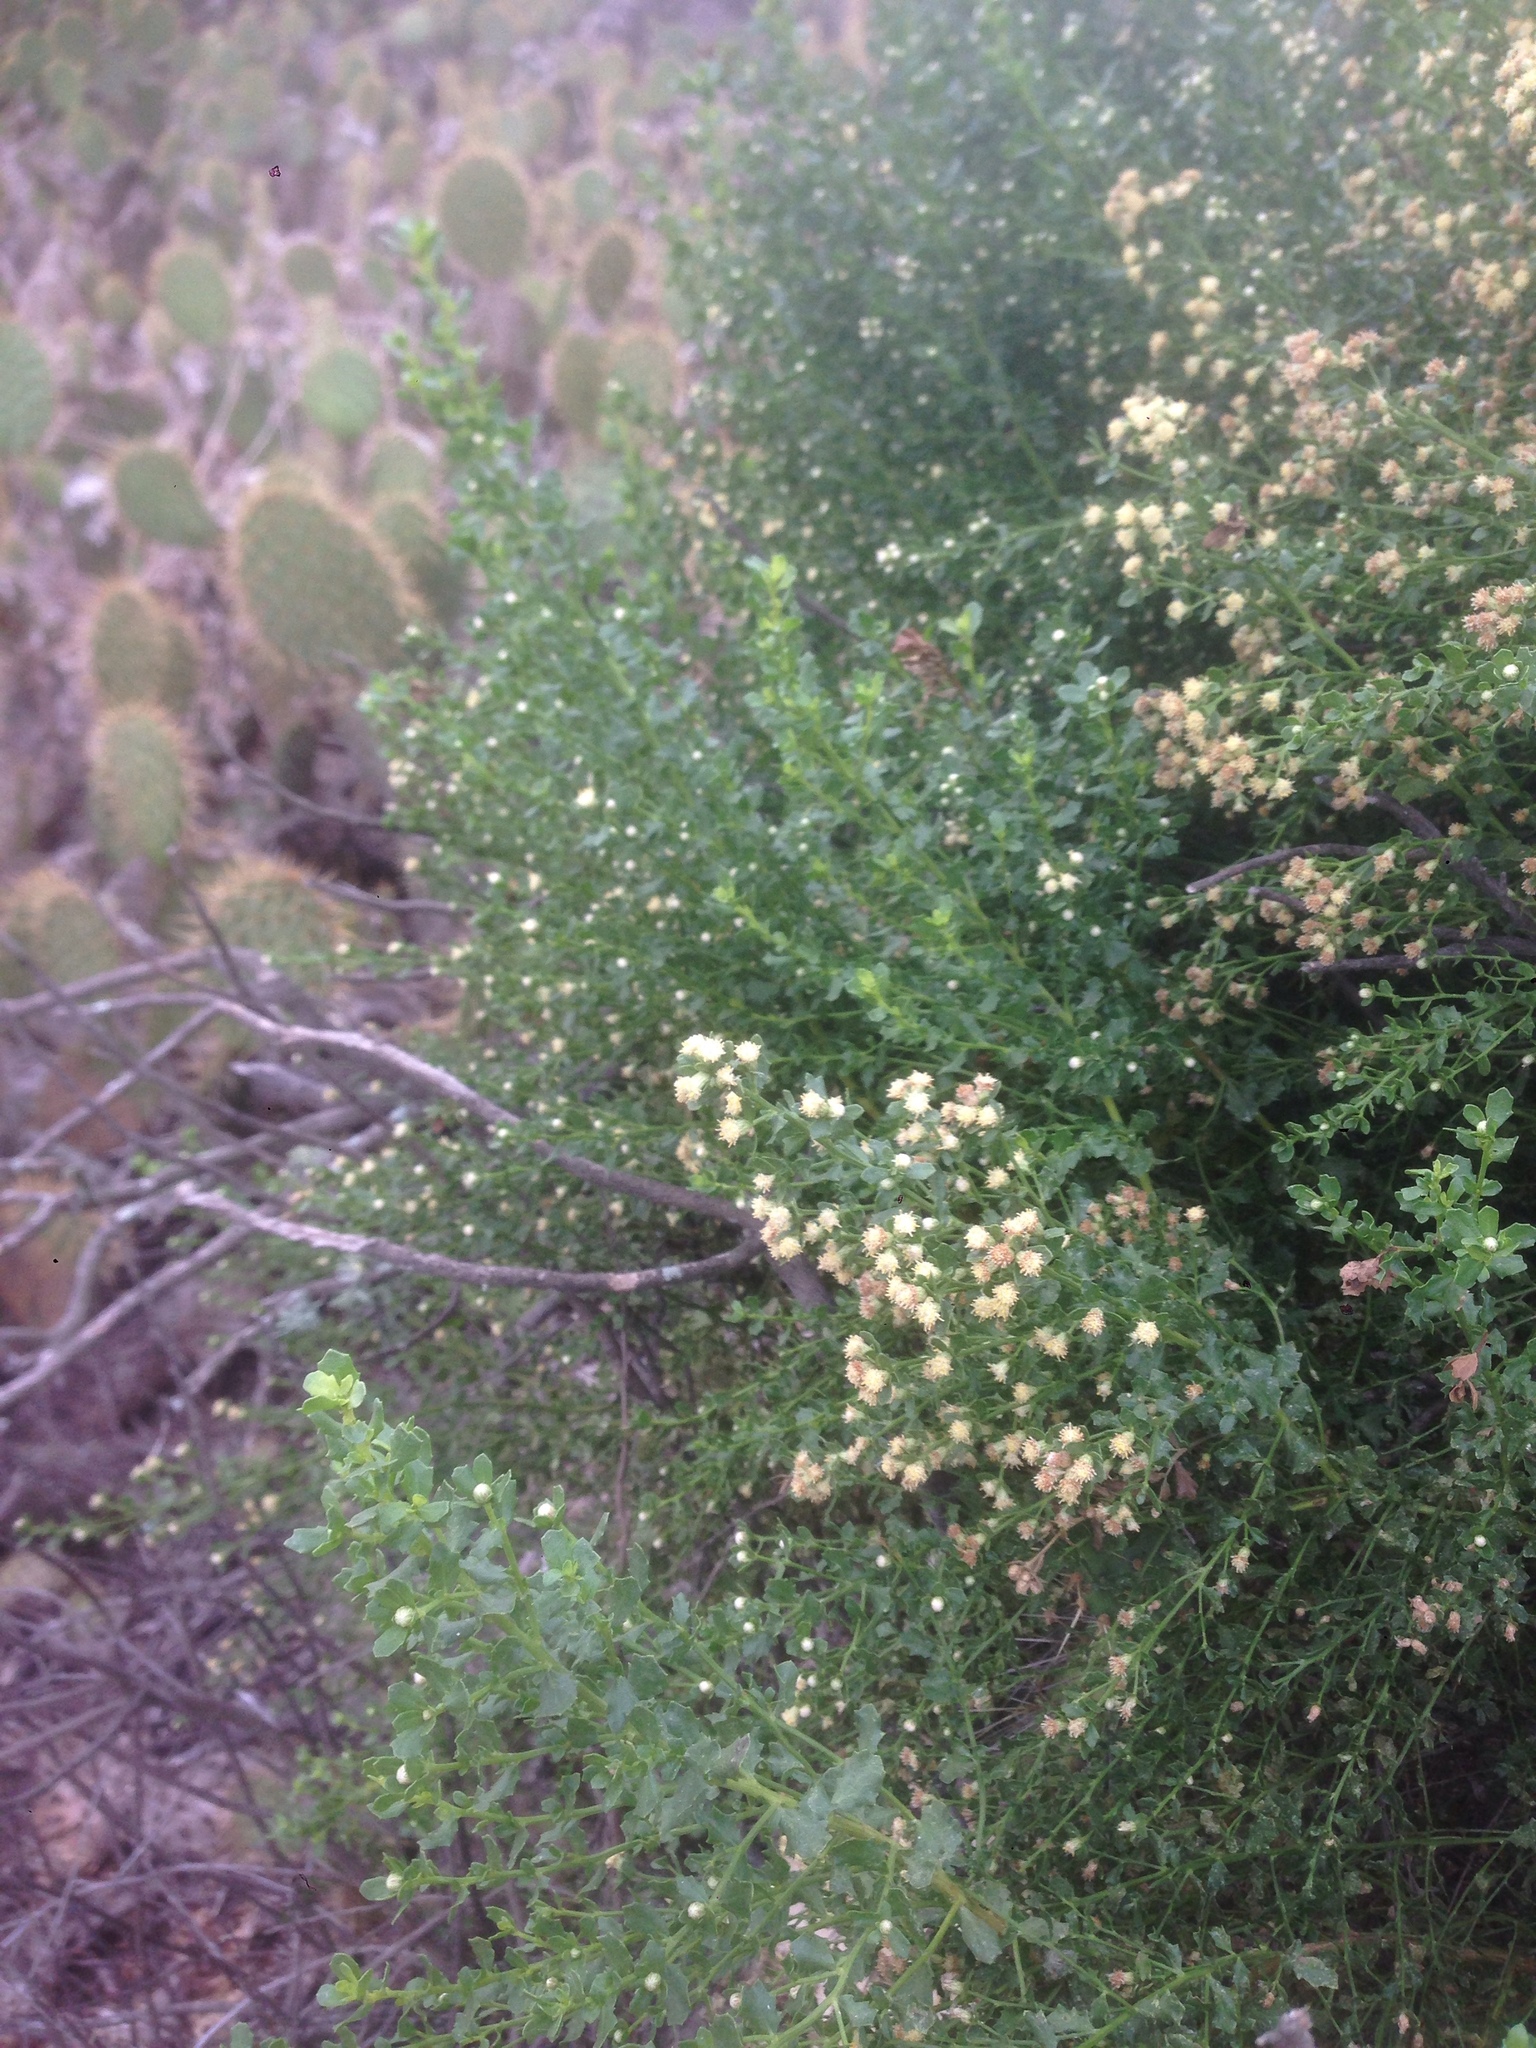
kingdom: Plantae
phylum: Tracheophyta
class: Magnoliopsida
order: Asterales
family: Asteraceae
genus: Baccharis
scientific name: Baccharis pilularis
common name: Coyotebrush
